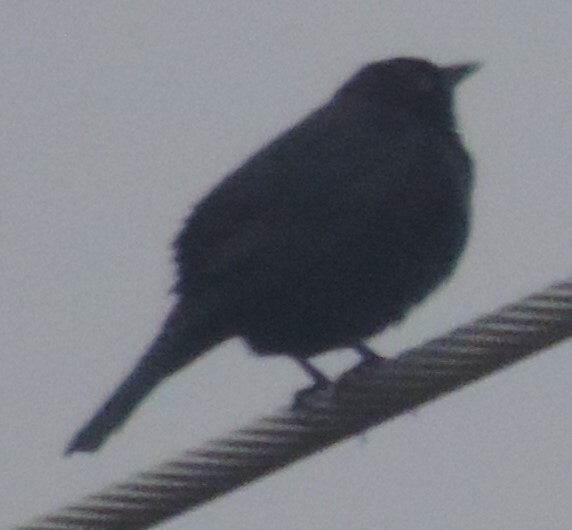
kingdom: Animalia
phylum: Chordata
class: Aves
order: Passeriformes
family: Icteridae
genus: Euphagus
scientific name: Euphagus cyanocephalus
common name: Brewer's blackbird
